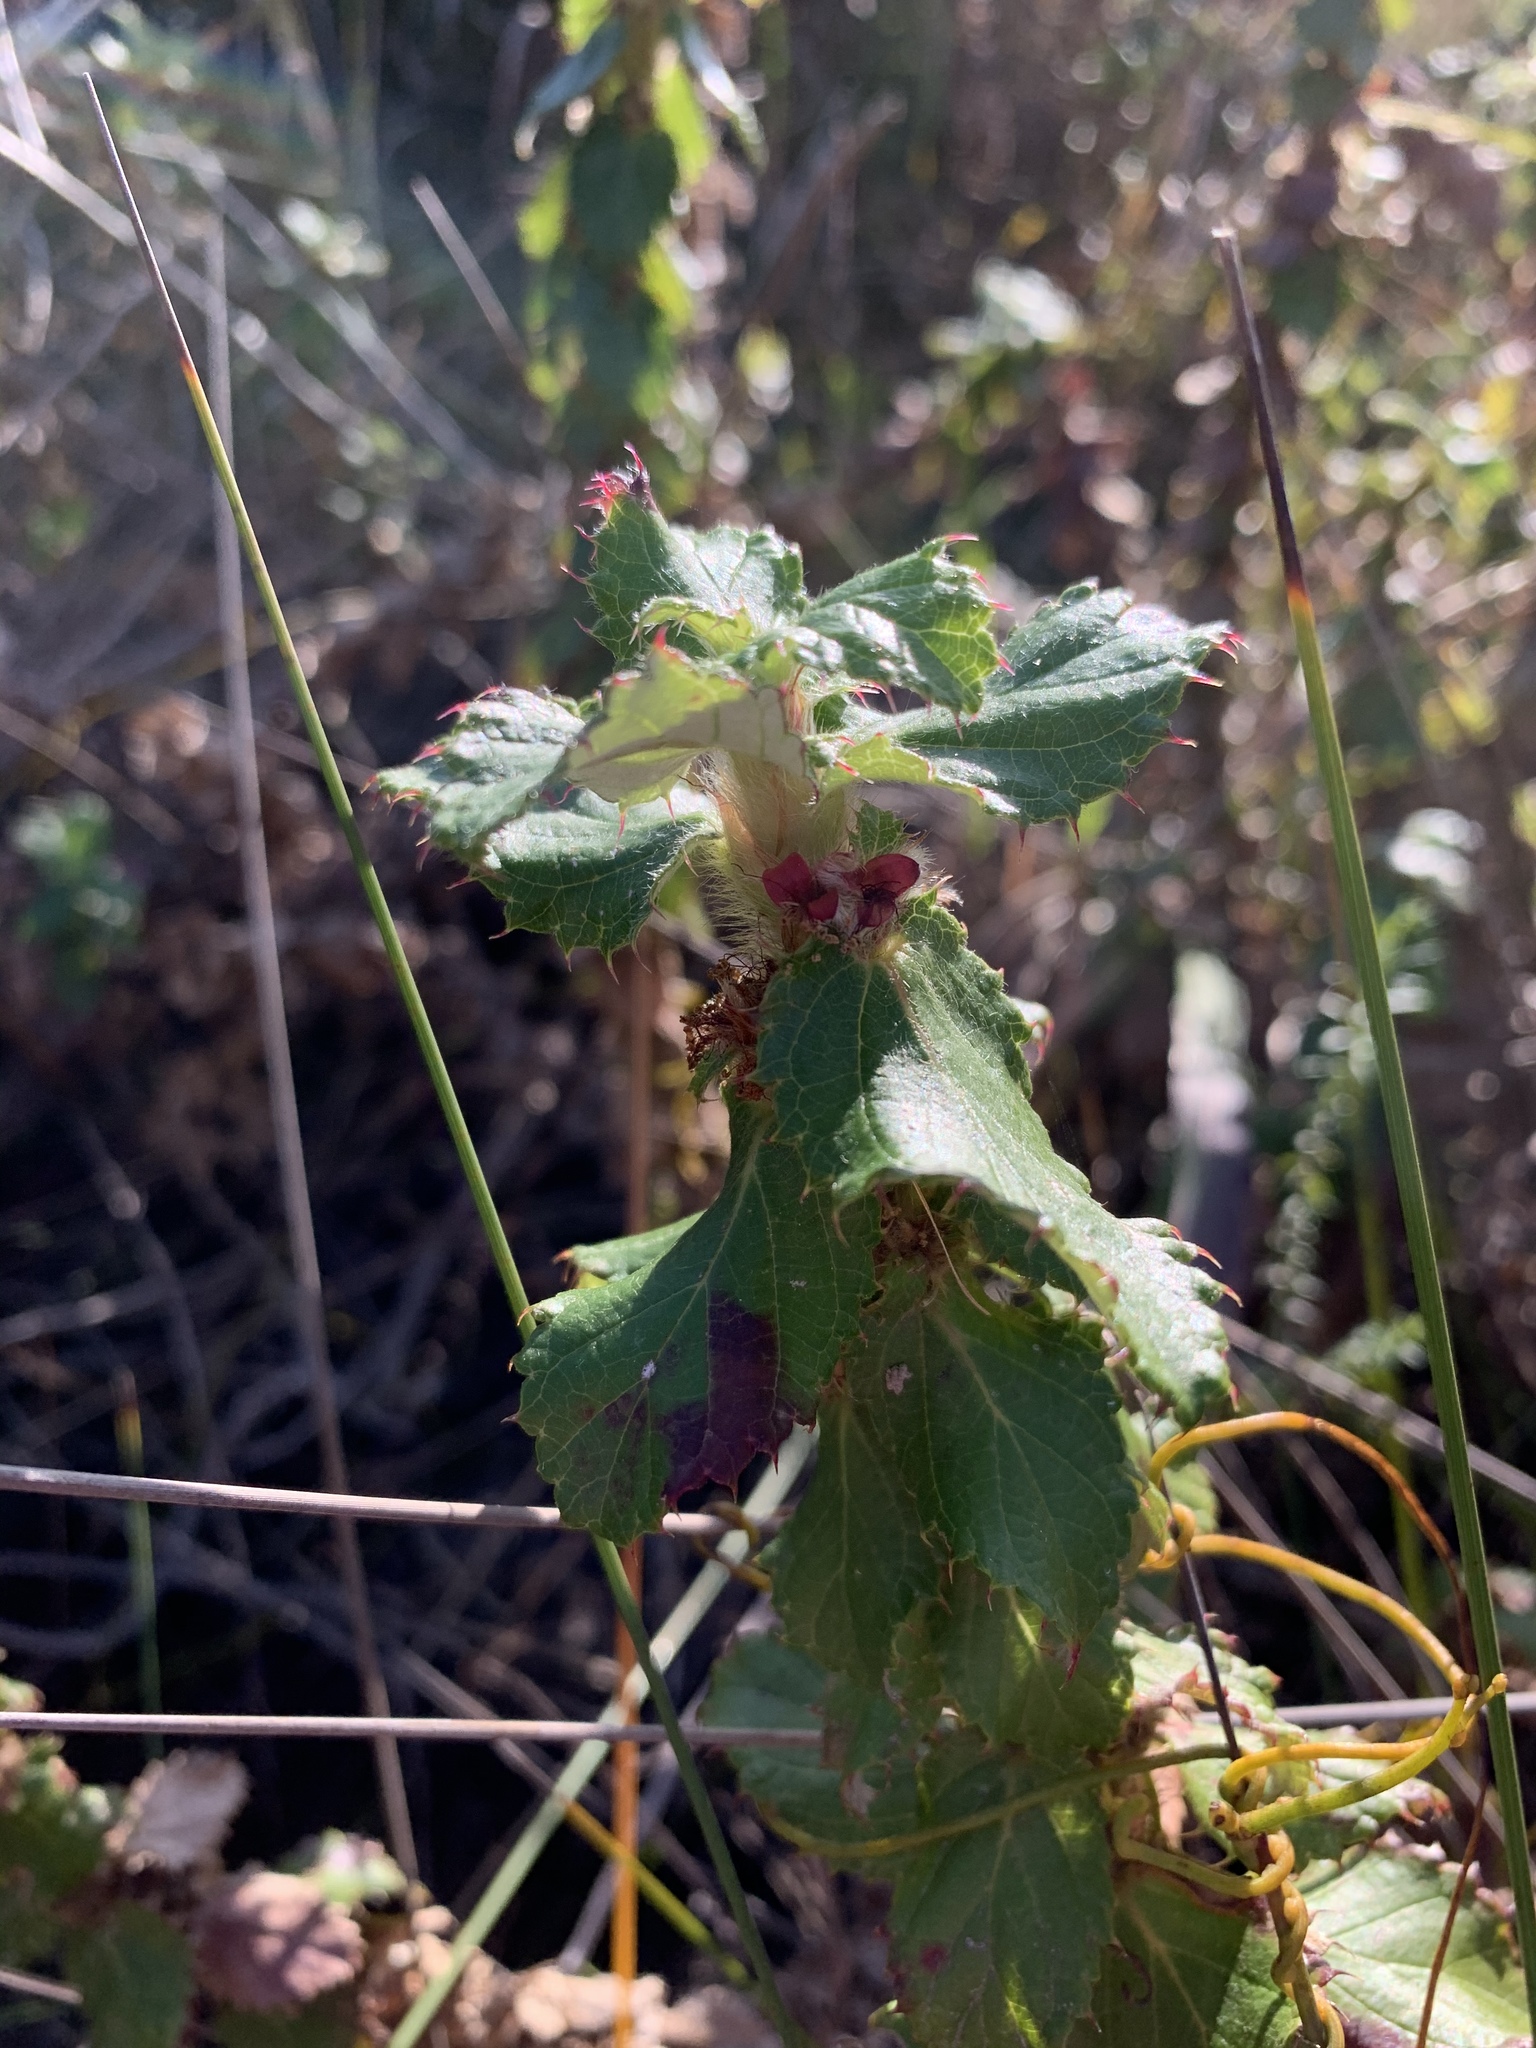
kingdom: Plantae
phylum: Tracheophyta
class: Magnoliopsida
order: Rosales
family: Rosaceae
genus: Cliffortia
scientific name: Cliffortia hirsuta
